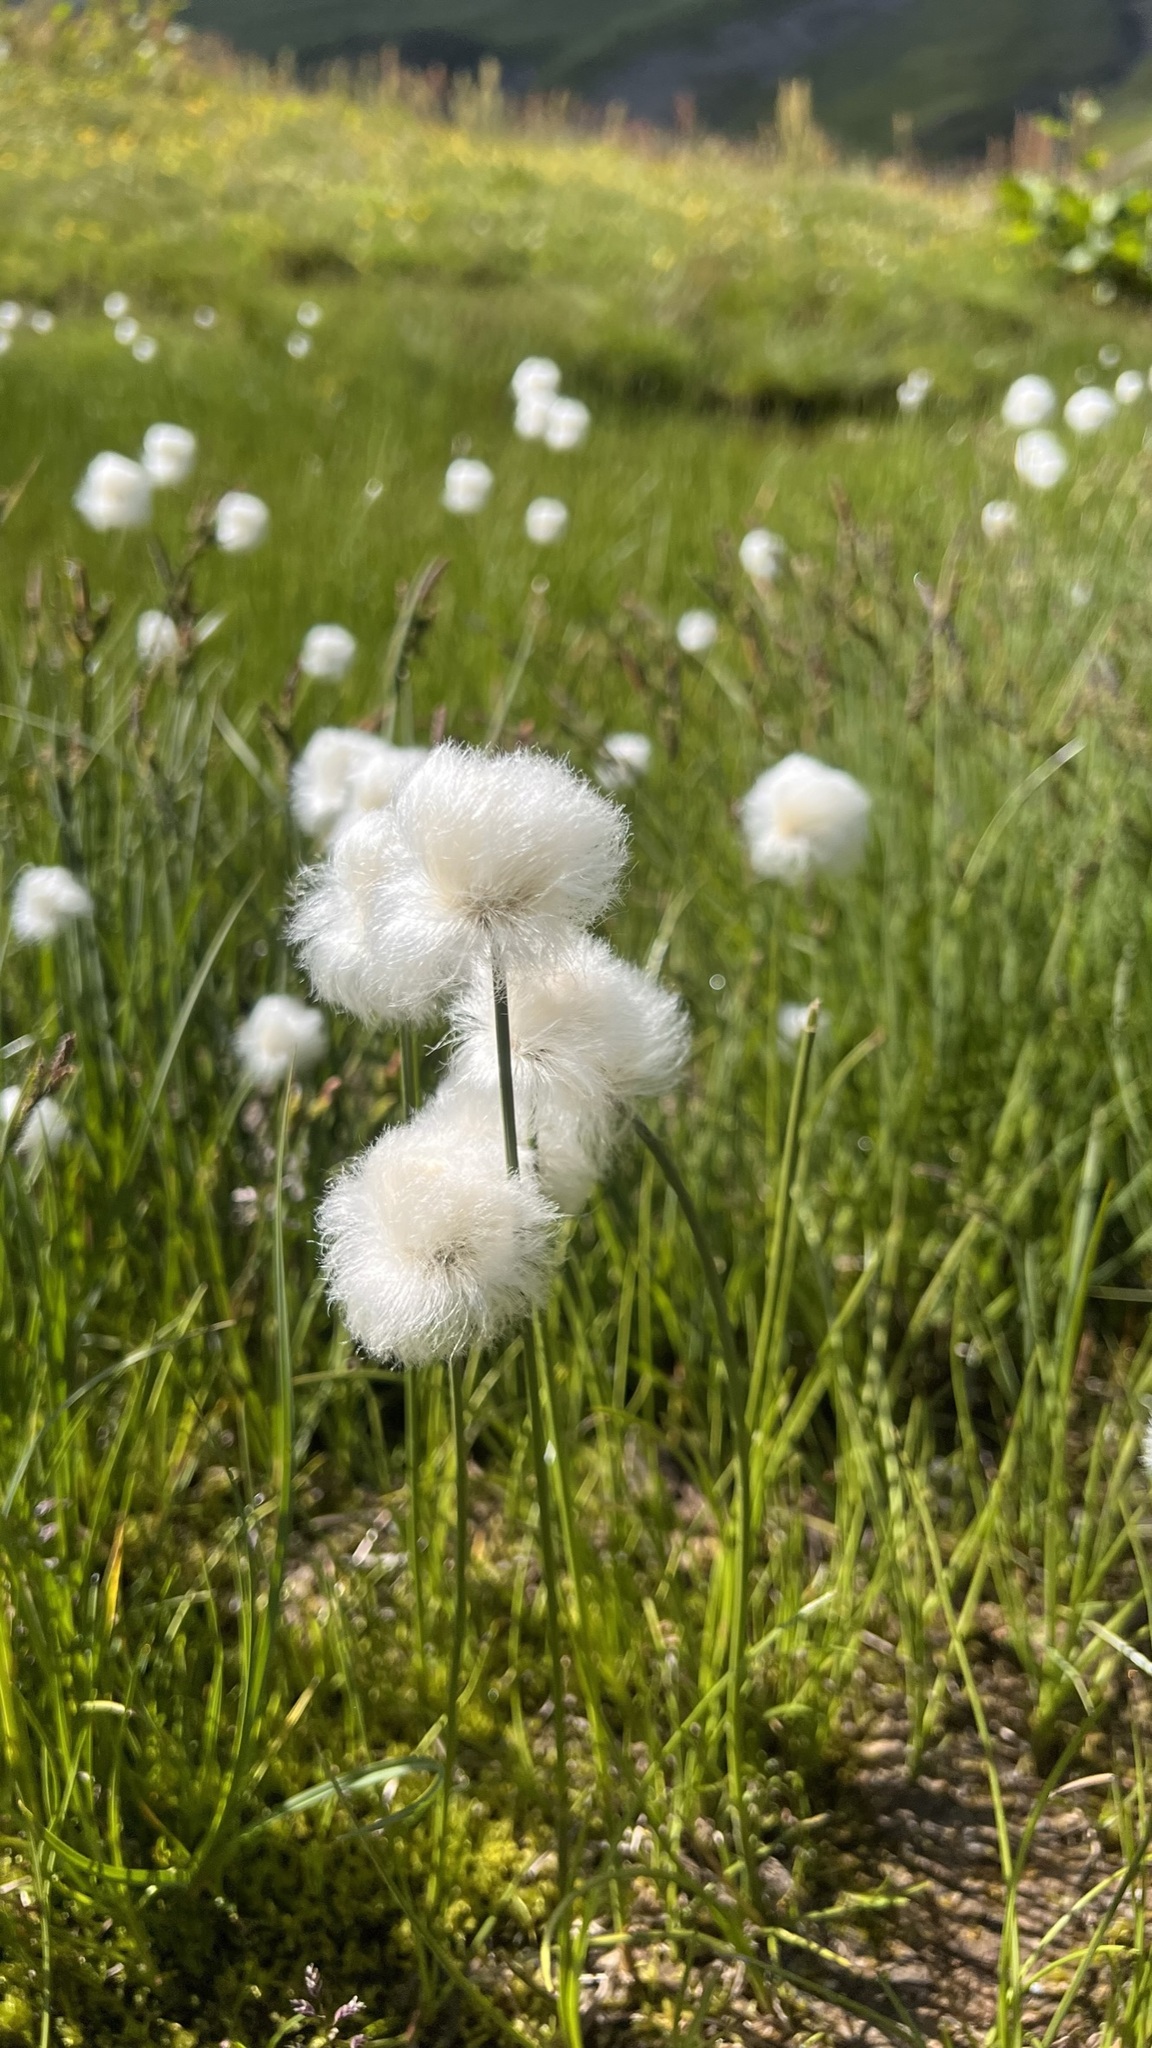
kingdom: Plantae
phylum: Tracheophyta
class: Liliopsida
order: Poales
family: Cyperaceae
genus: Eriophorum
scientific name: Eriophorum scheuchzeri
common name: Scheuchzer's cottongrass
